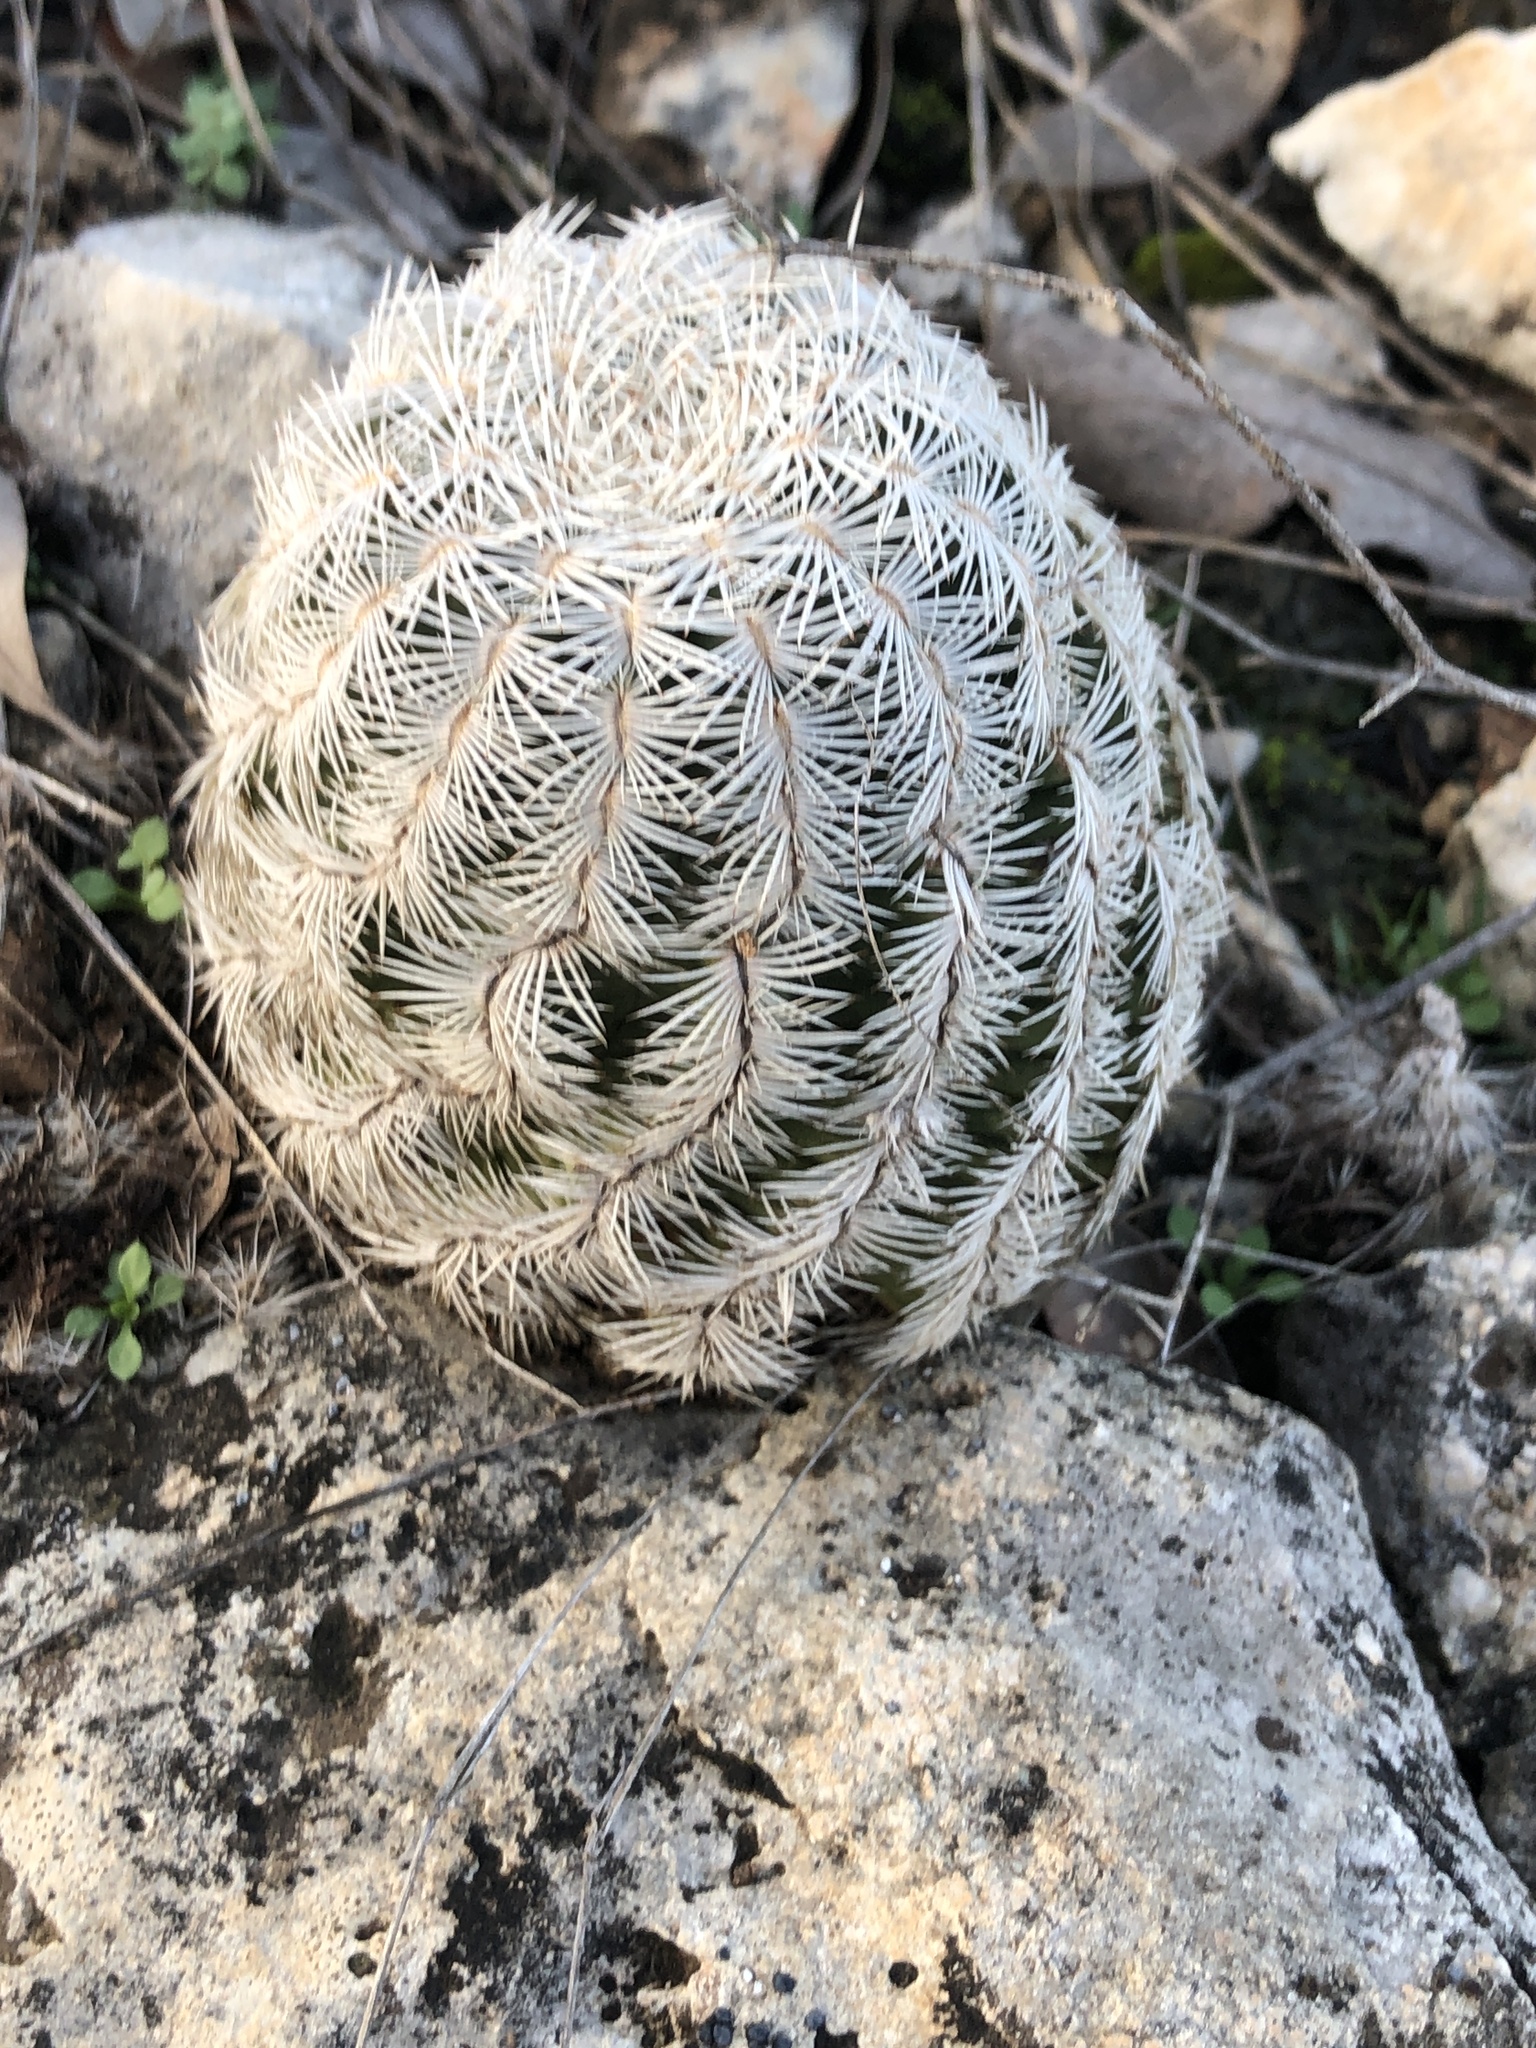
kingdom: Plantae
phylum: Tracheophyta
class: Magnoliopsida
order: Caryophyllales
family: Cactaceae
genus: Echinocereus
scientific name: Echinocereus reichenbachii
